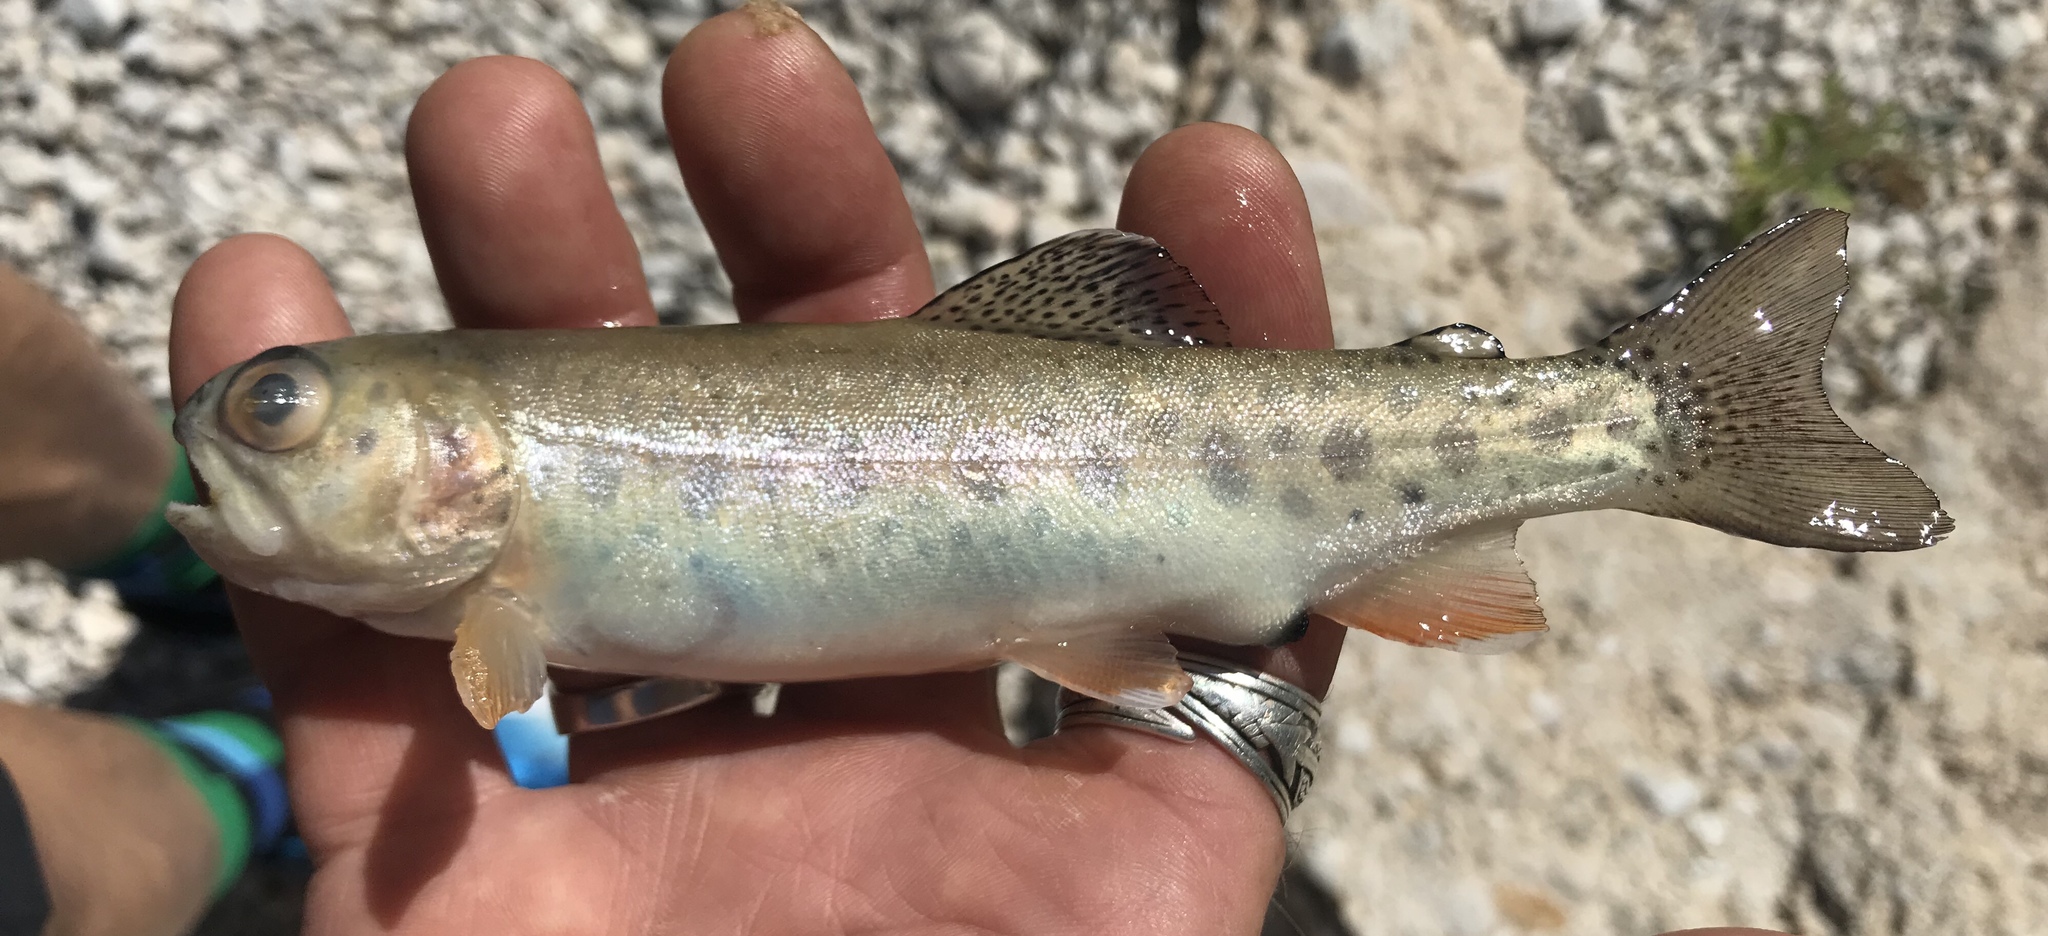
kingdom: Animalia
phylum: Chordata
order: Salmoniformes
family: Salmonidae
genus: Oncorhynchus
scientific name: Oncorhynchus mykiss
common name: Rainbow trout
